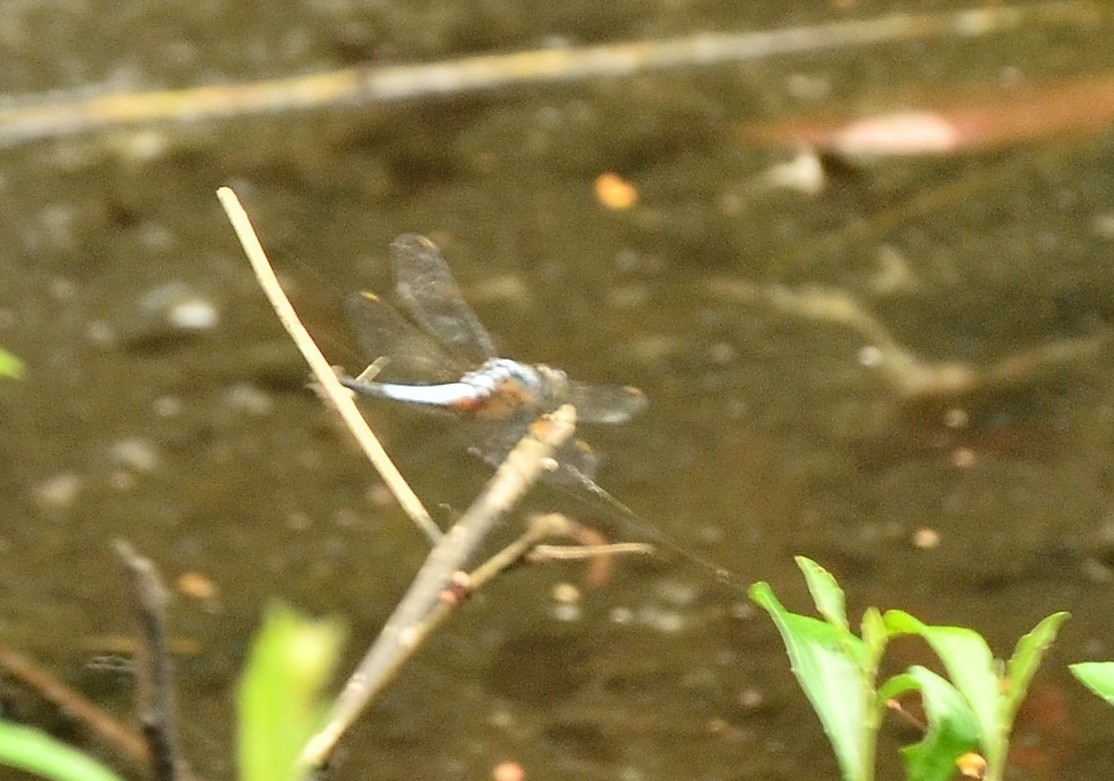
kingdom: Animalia
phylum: Arthropoda
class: Insecta
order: Odonata
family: Libellulidae
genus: Brachydiplax
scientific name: Brachydiplax chalybea
